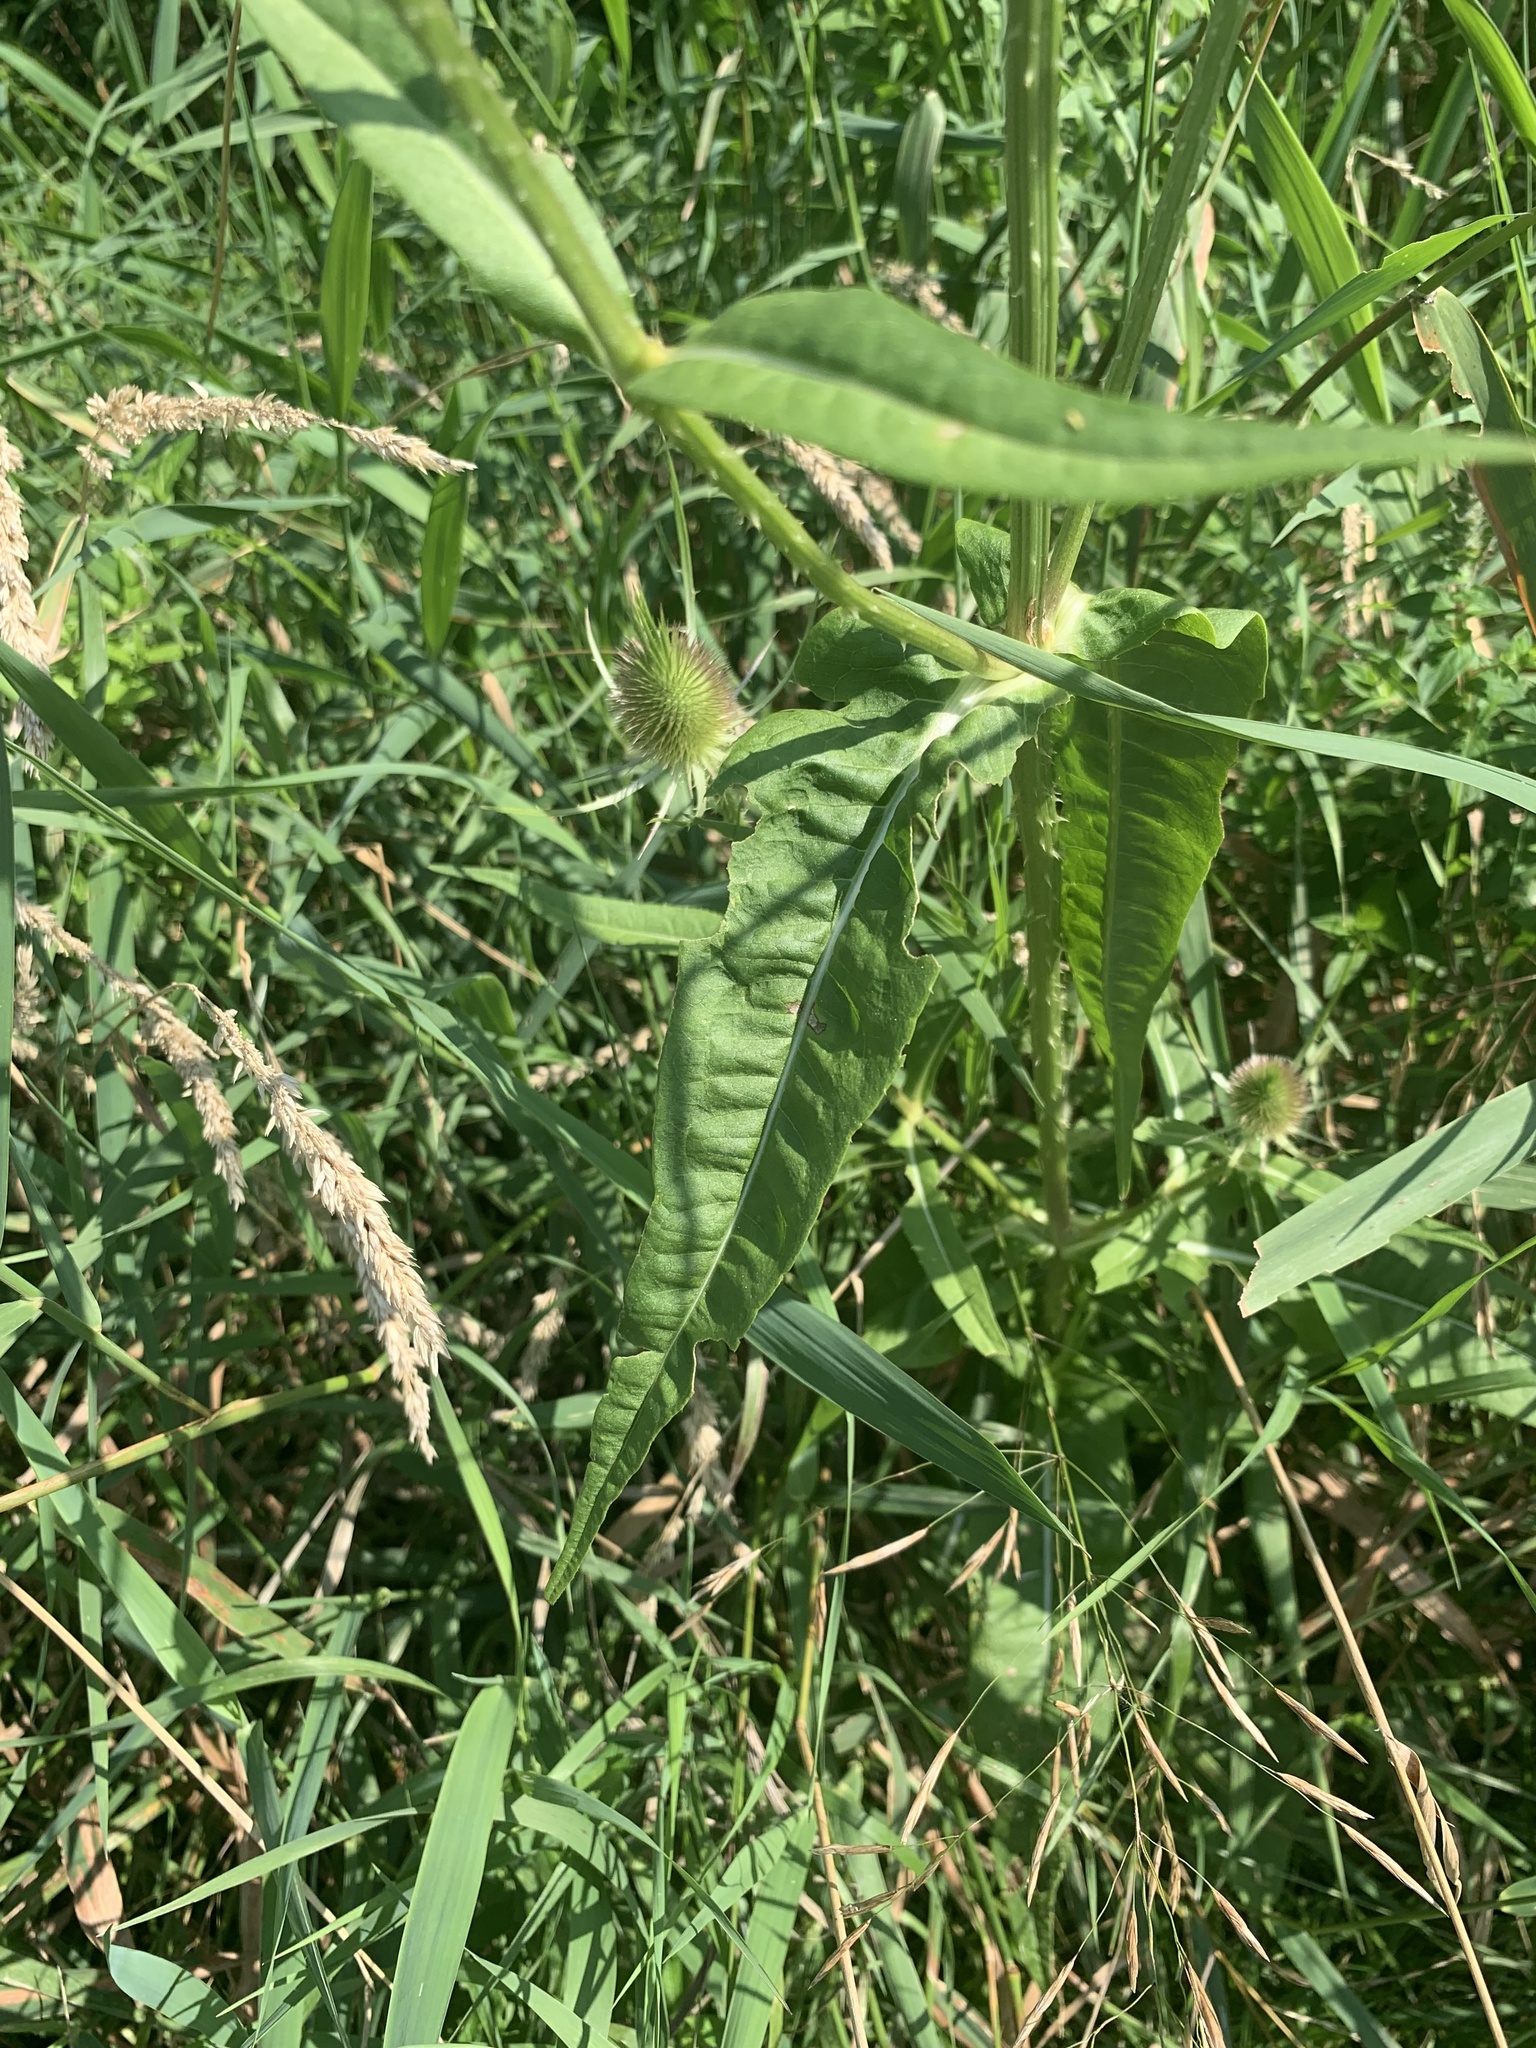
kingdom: Plantae
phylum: Tracheophyta
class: Magnoliopsida
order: Dipsacales
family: Caprifoliaceae
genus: Dipsacus
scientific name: Dipsacus fullonum
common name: Teasel
